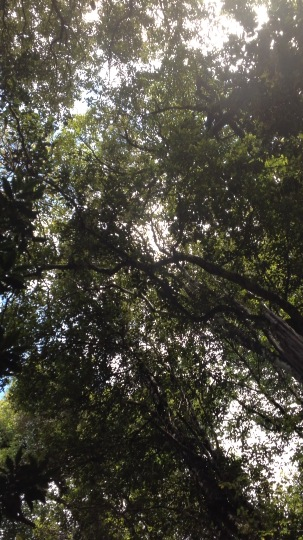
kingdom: Animalia
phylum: Chordata
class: Aves
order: Psittaciformes
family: Psittacidae
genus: Nestor
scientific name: Nestor meridionalis
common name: New zealand kaka
